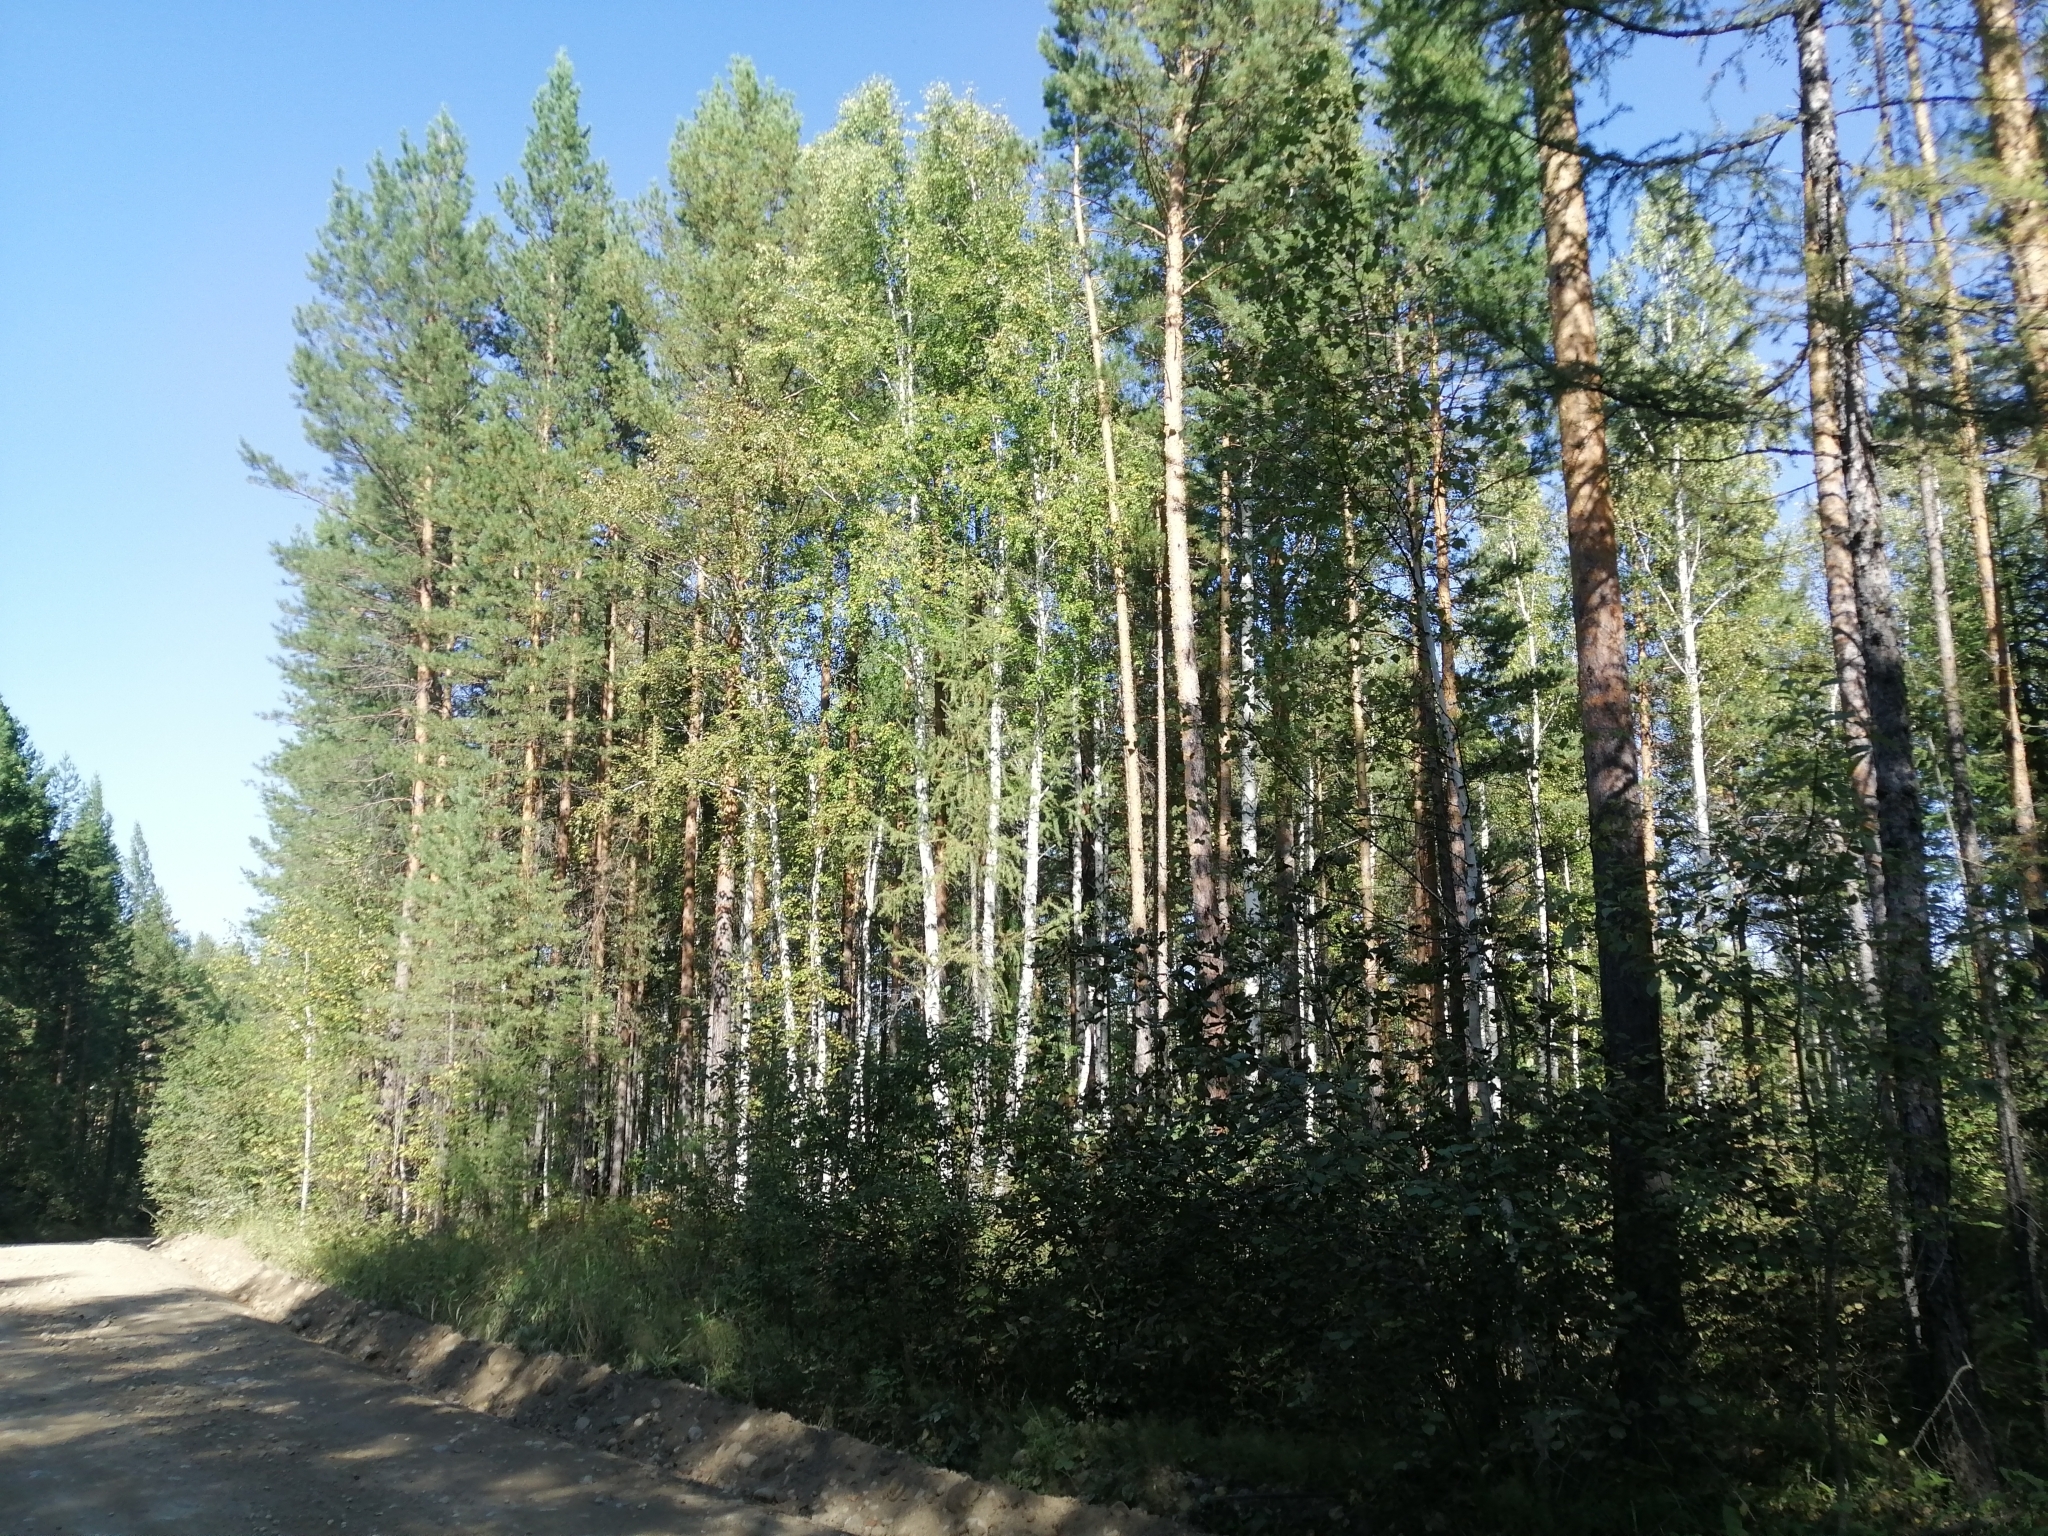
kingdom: Plantae
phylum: Tracheophyta
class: Pinopsida
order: Pinales
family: Pinaceae
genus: Pinus
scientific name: Pinus sylvestris
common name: Scots pine
